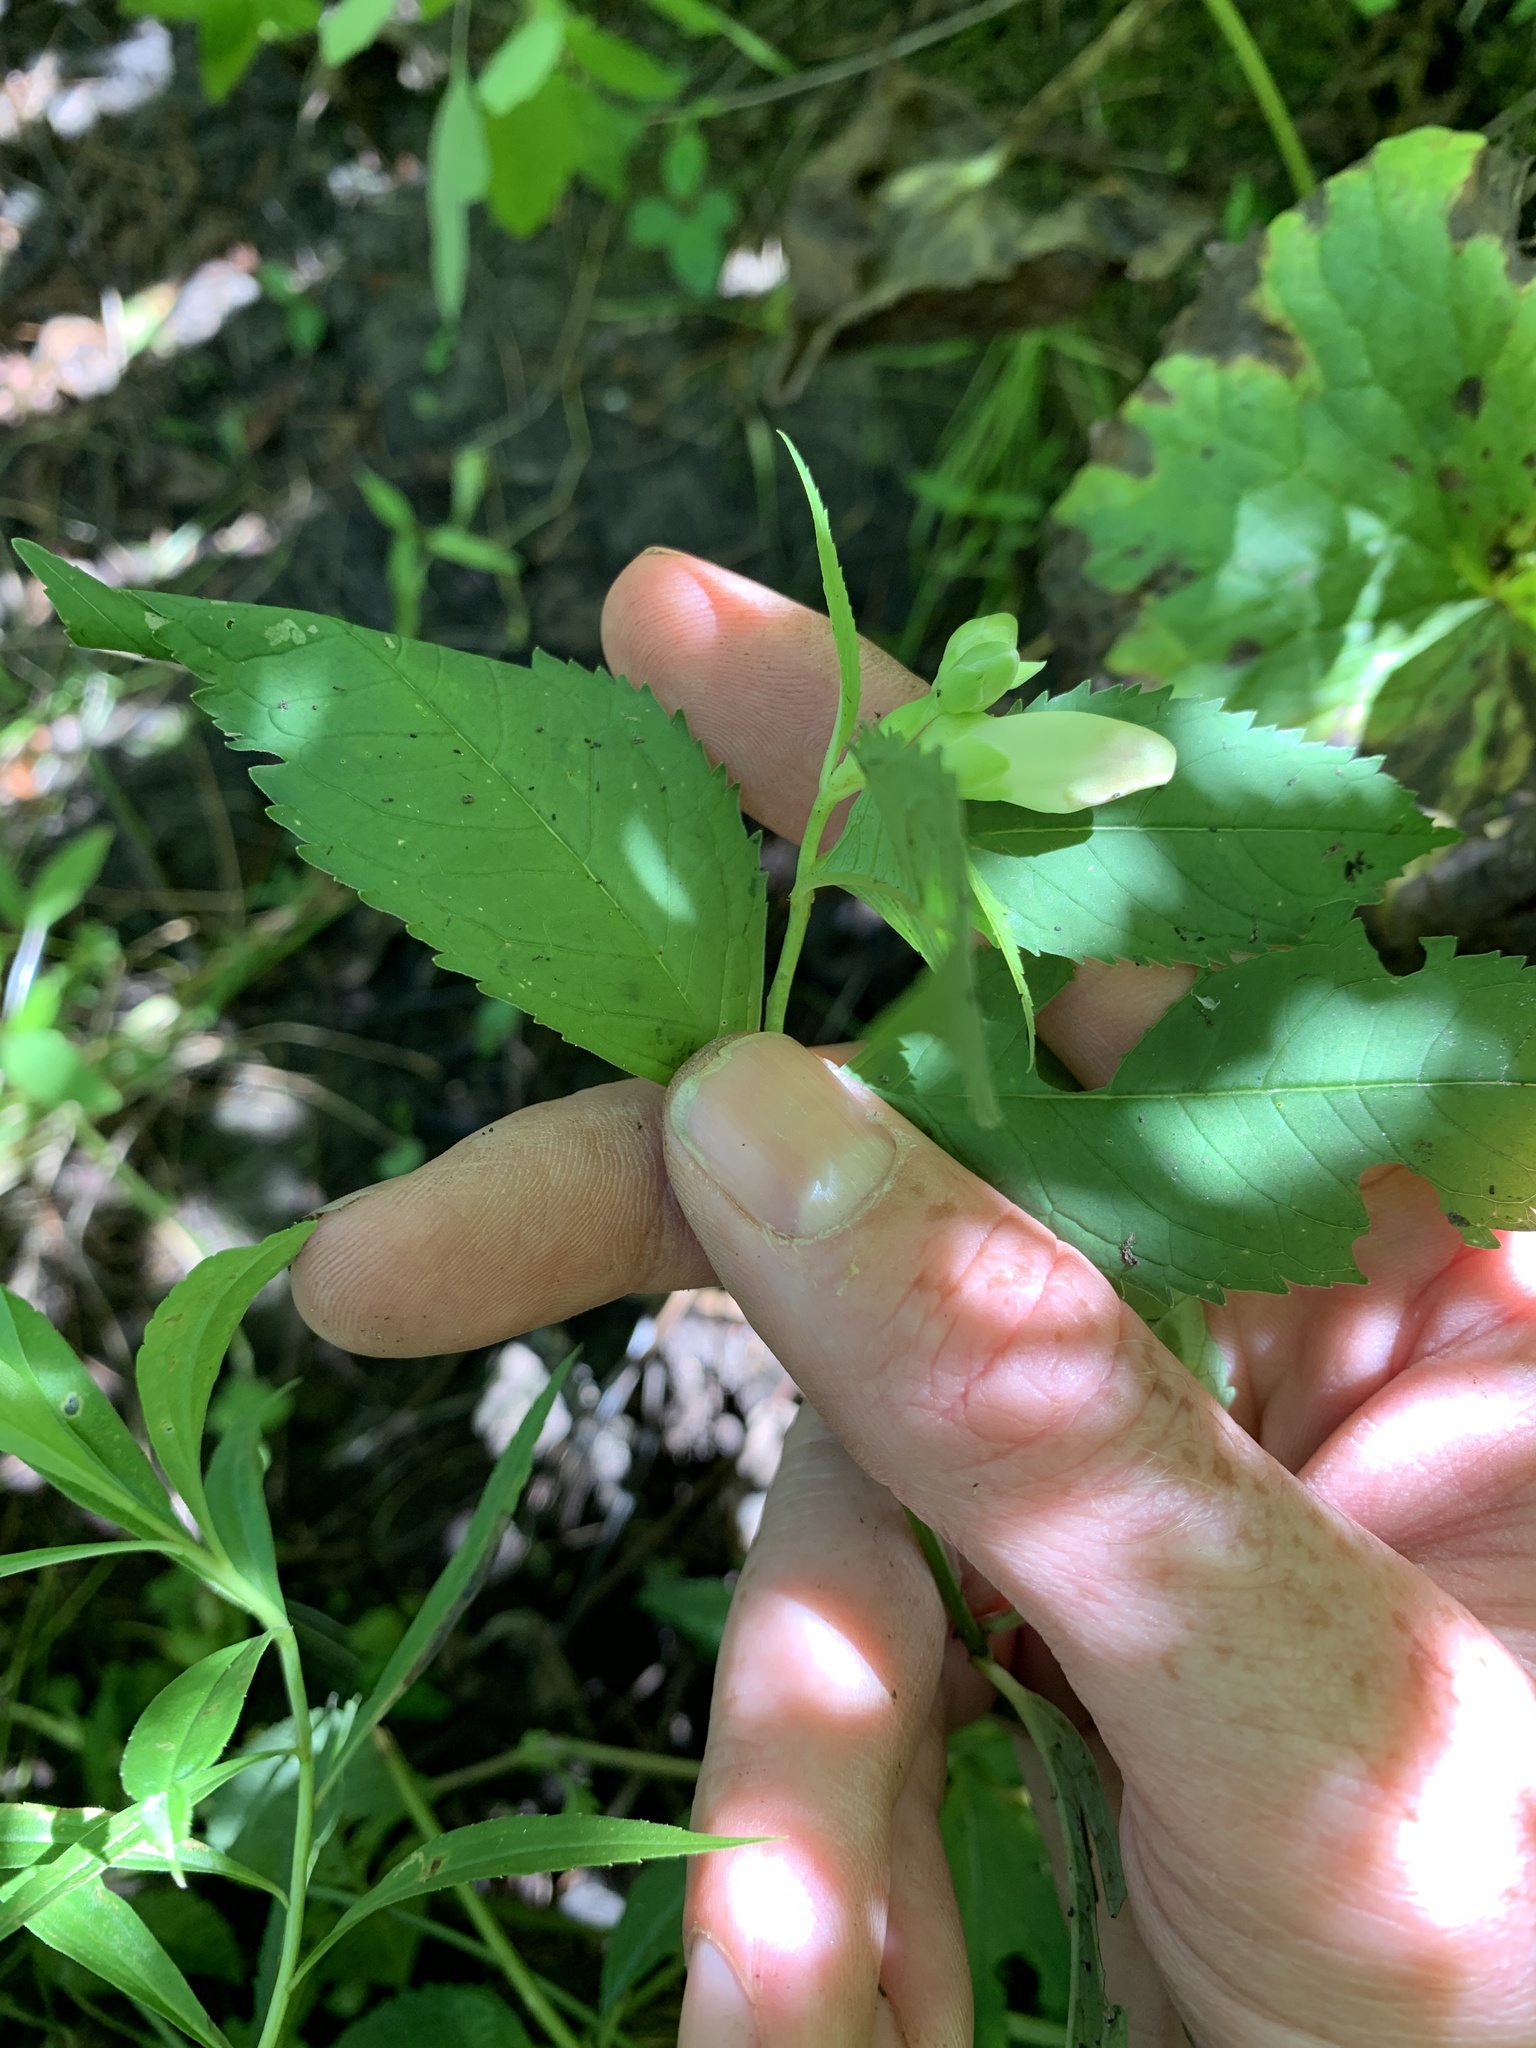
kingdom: Plantae
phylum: Tracheophyta
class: Magnoliopsida
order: Lamiales
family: Plantaginaceae
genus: Chelone
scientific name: Chelone glabra
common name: Snakehead
